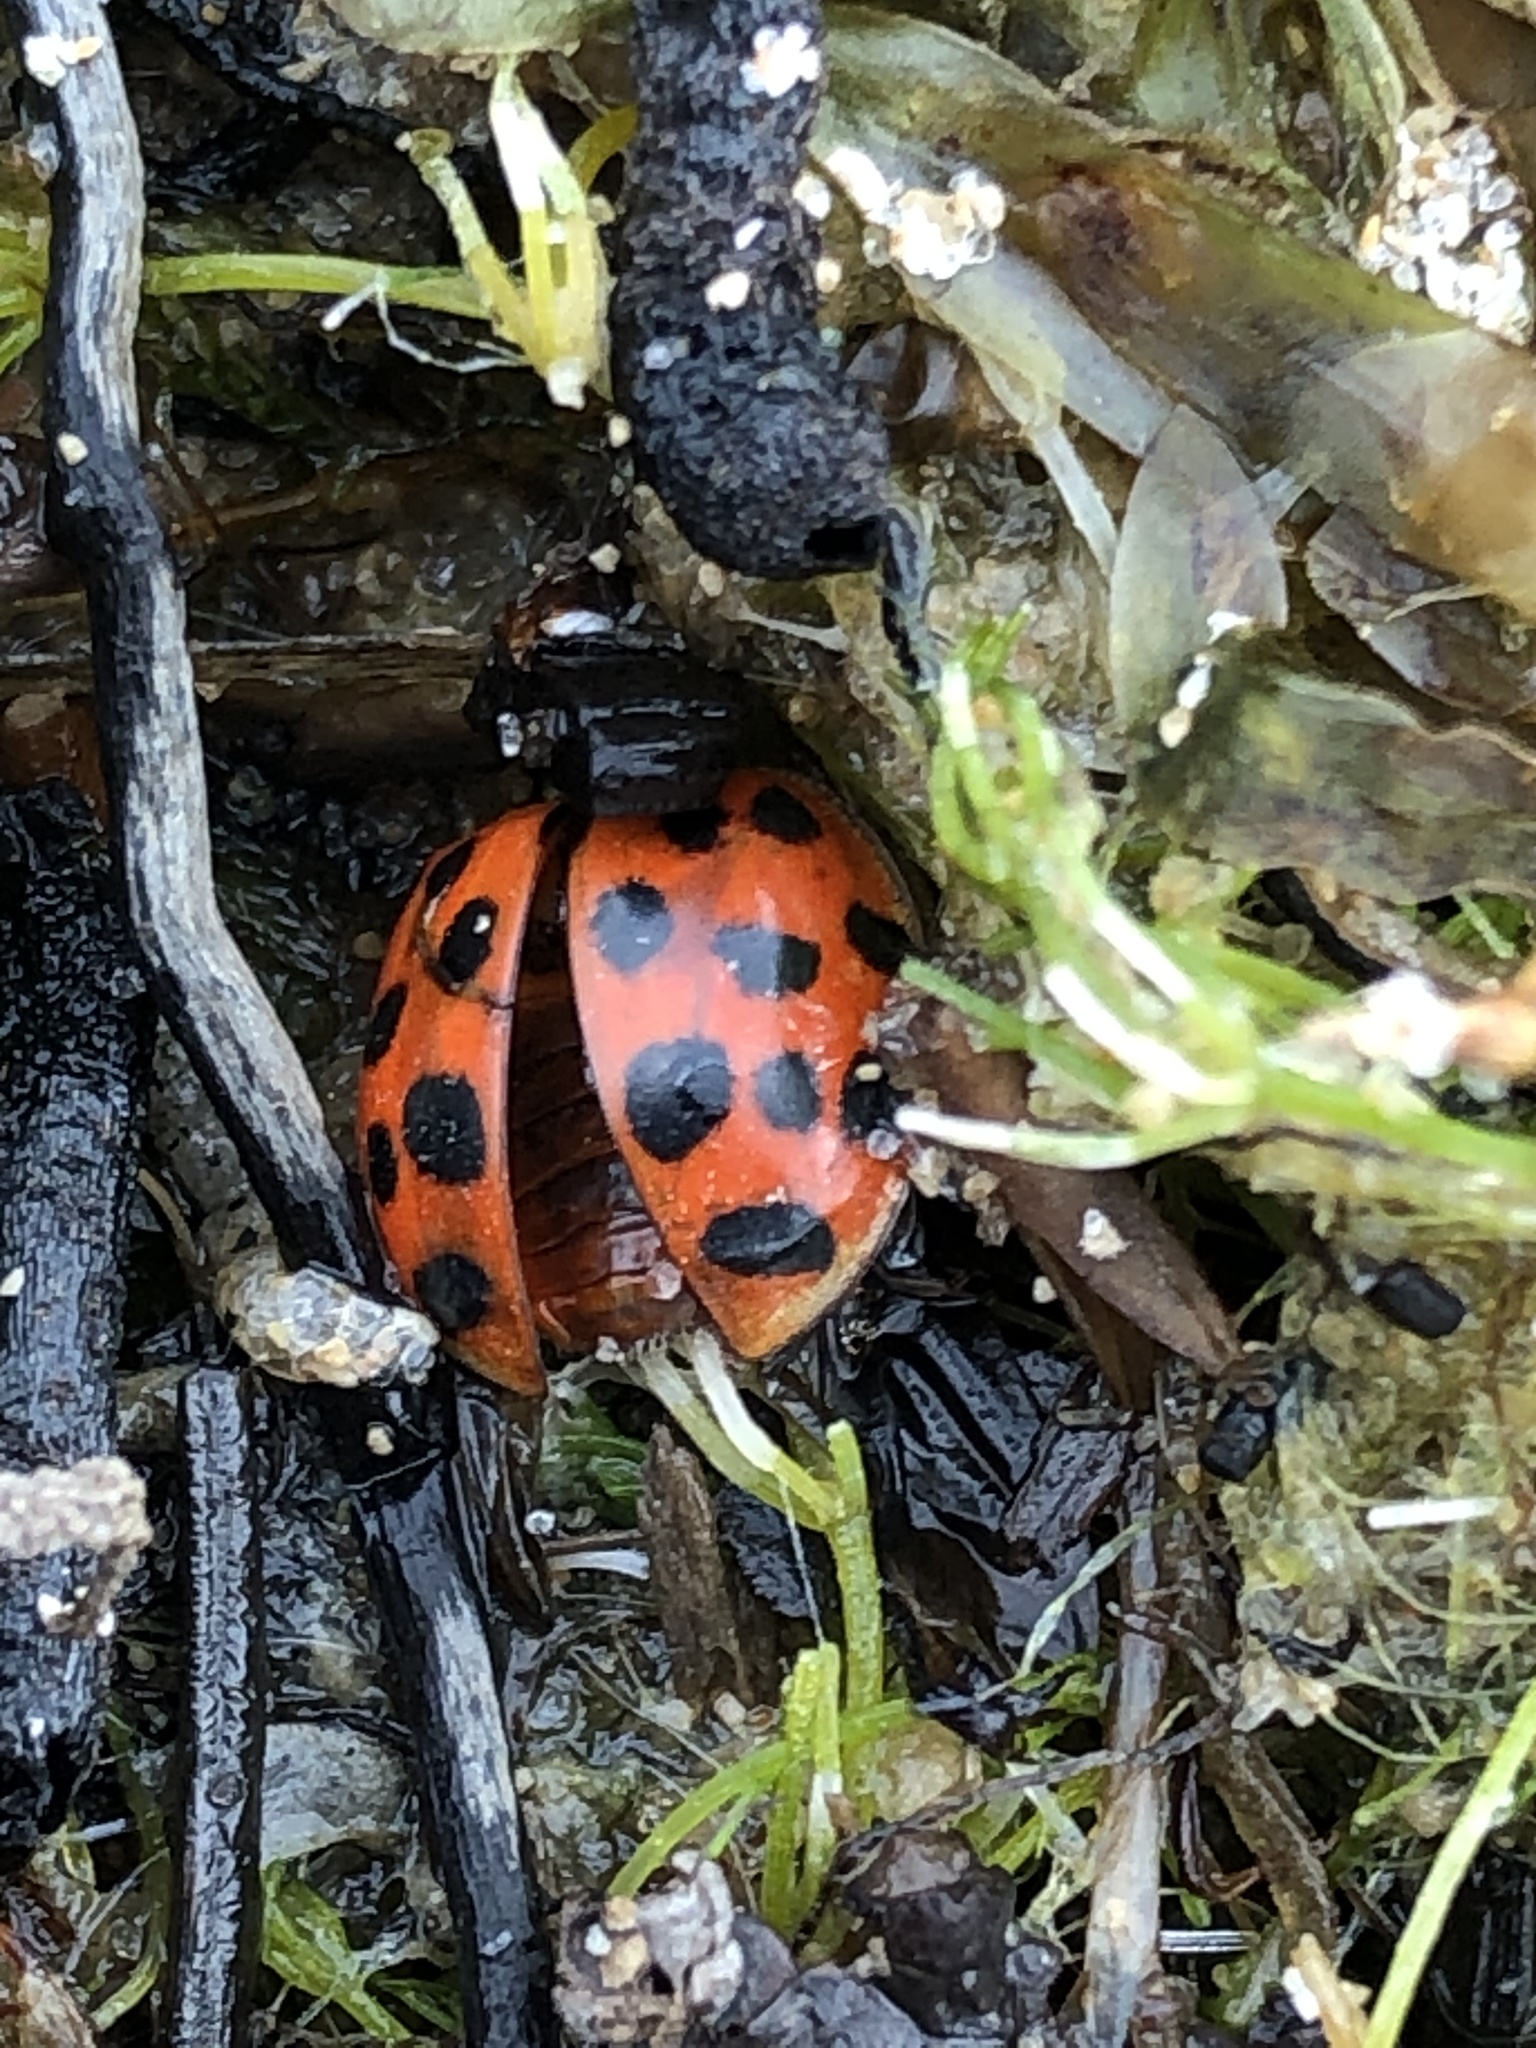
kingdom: Animalia
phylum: Arthropoda
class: Insecta
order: Coleoptera
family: Coccinellidae
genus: Harmonia
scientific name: Harmonia axyridis
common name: Harlequin ladybird
